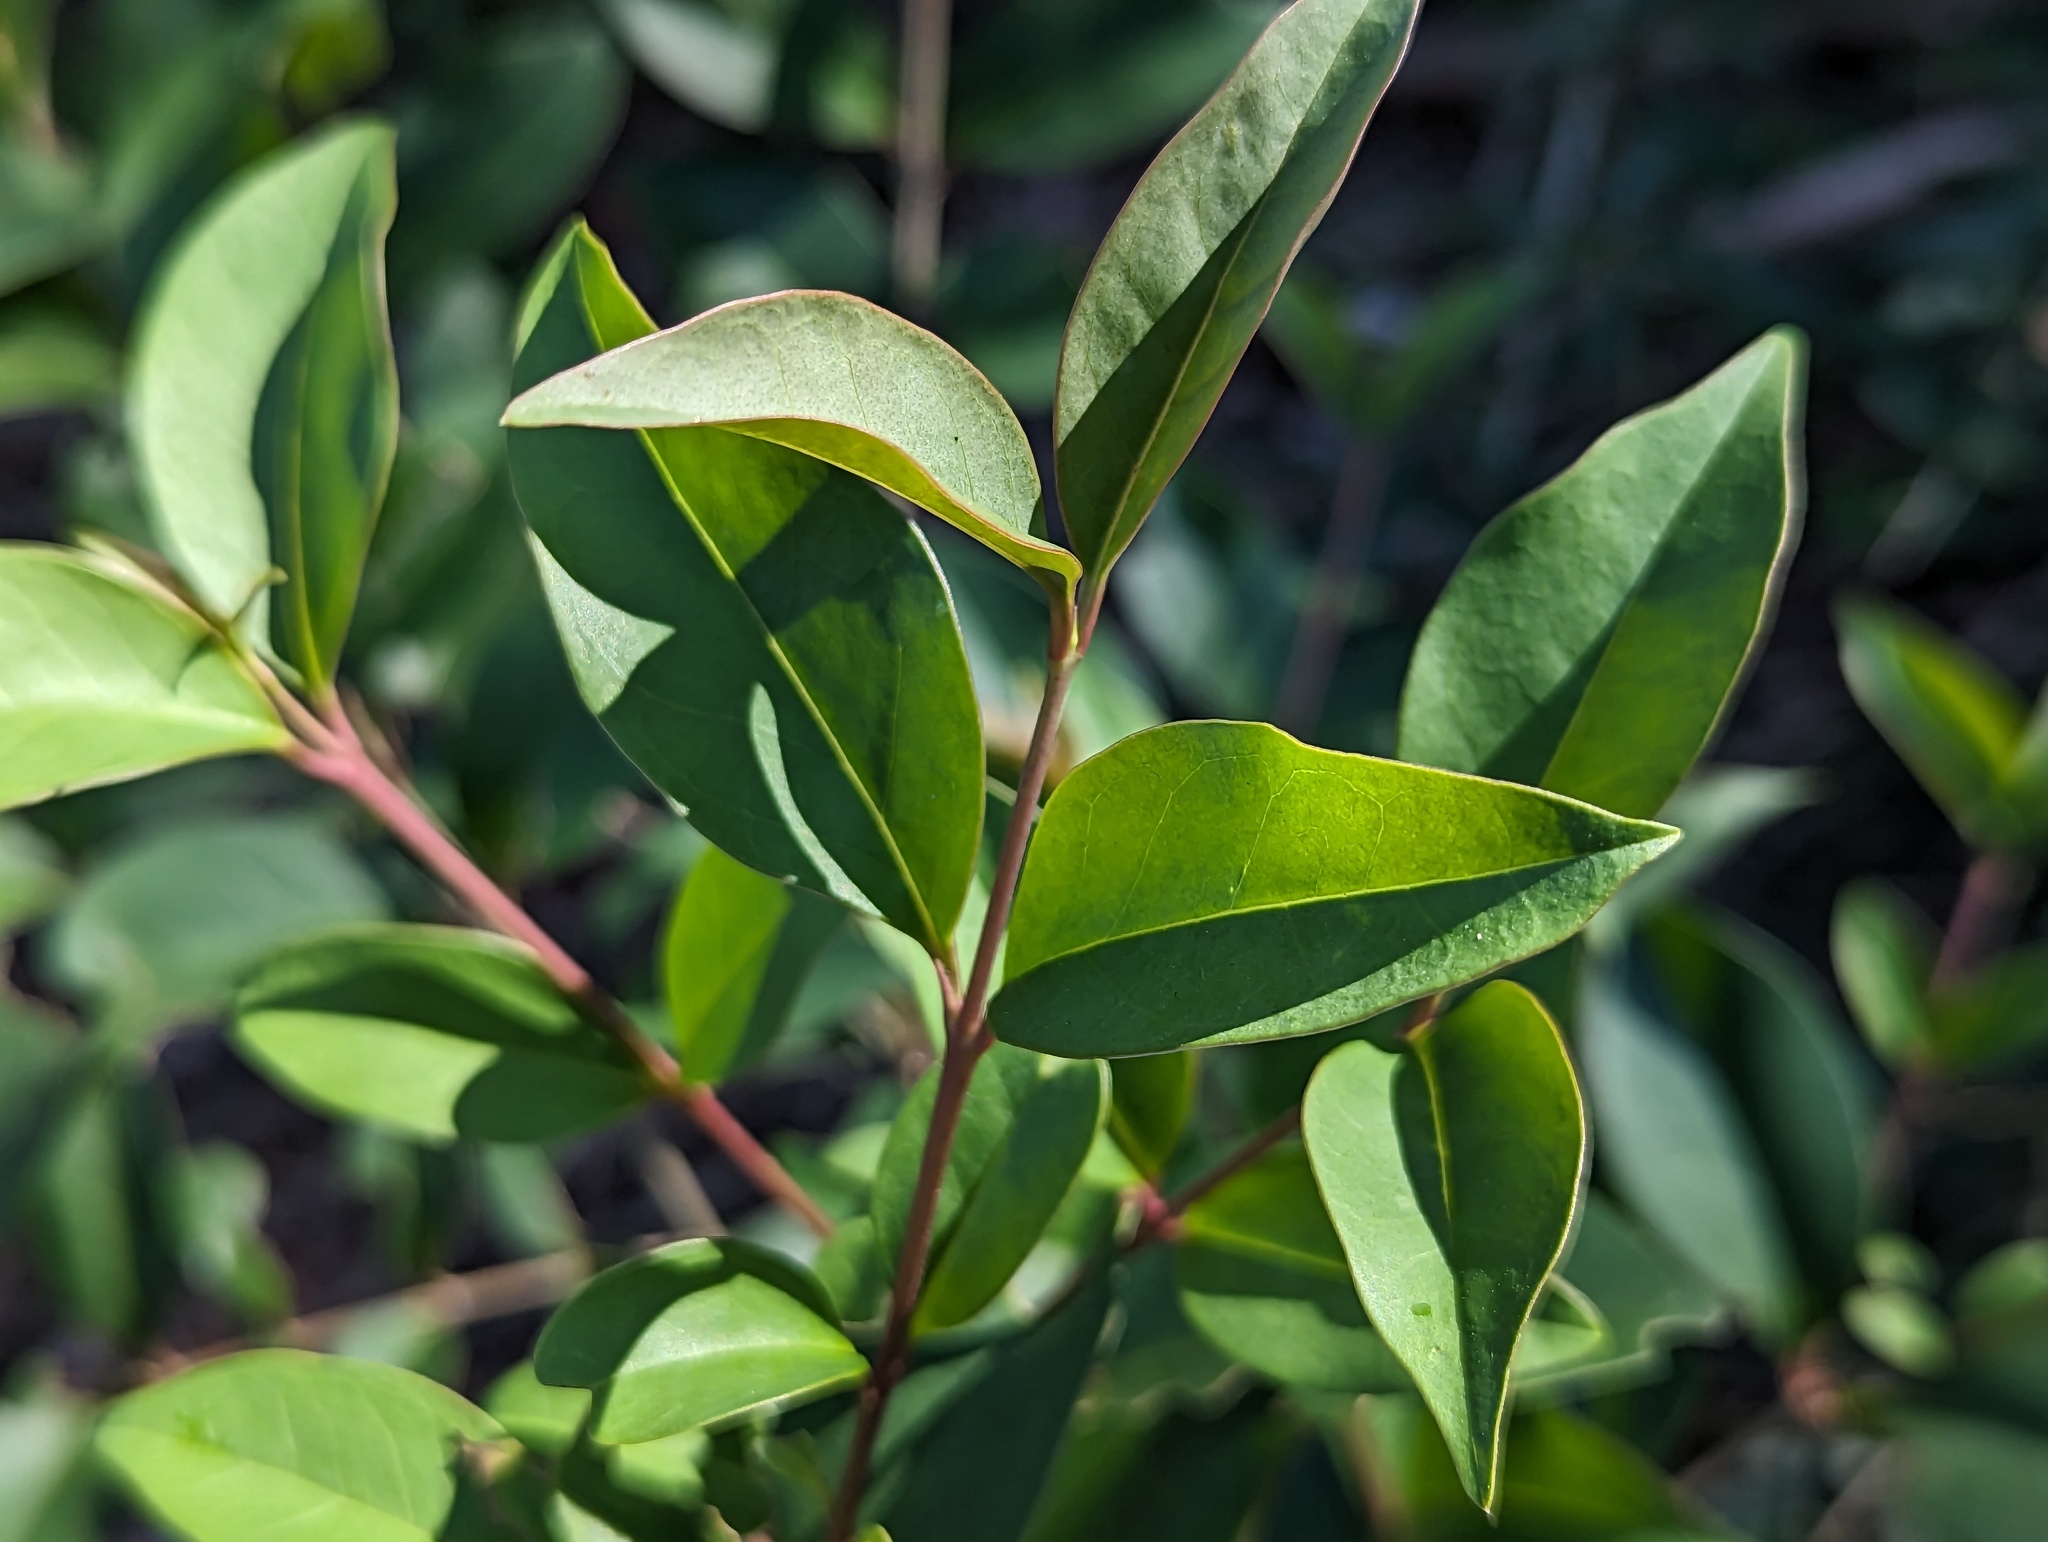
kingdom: Plantae
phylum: Tracheophyta
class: Magnoliopsida
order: Lamiales
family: Oleaceae
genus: Ligustrum
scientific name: Ligustrum lucidum
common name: Glossy privet
